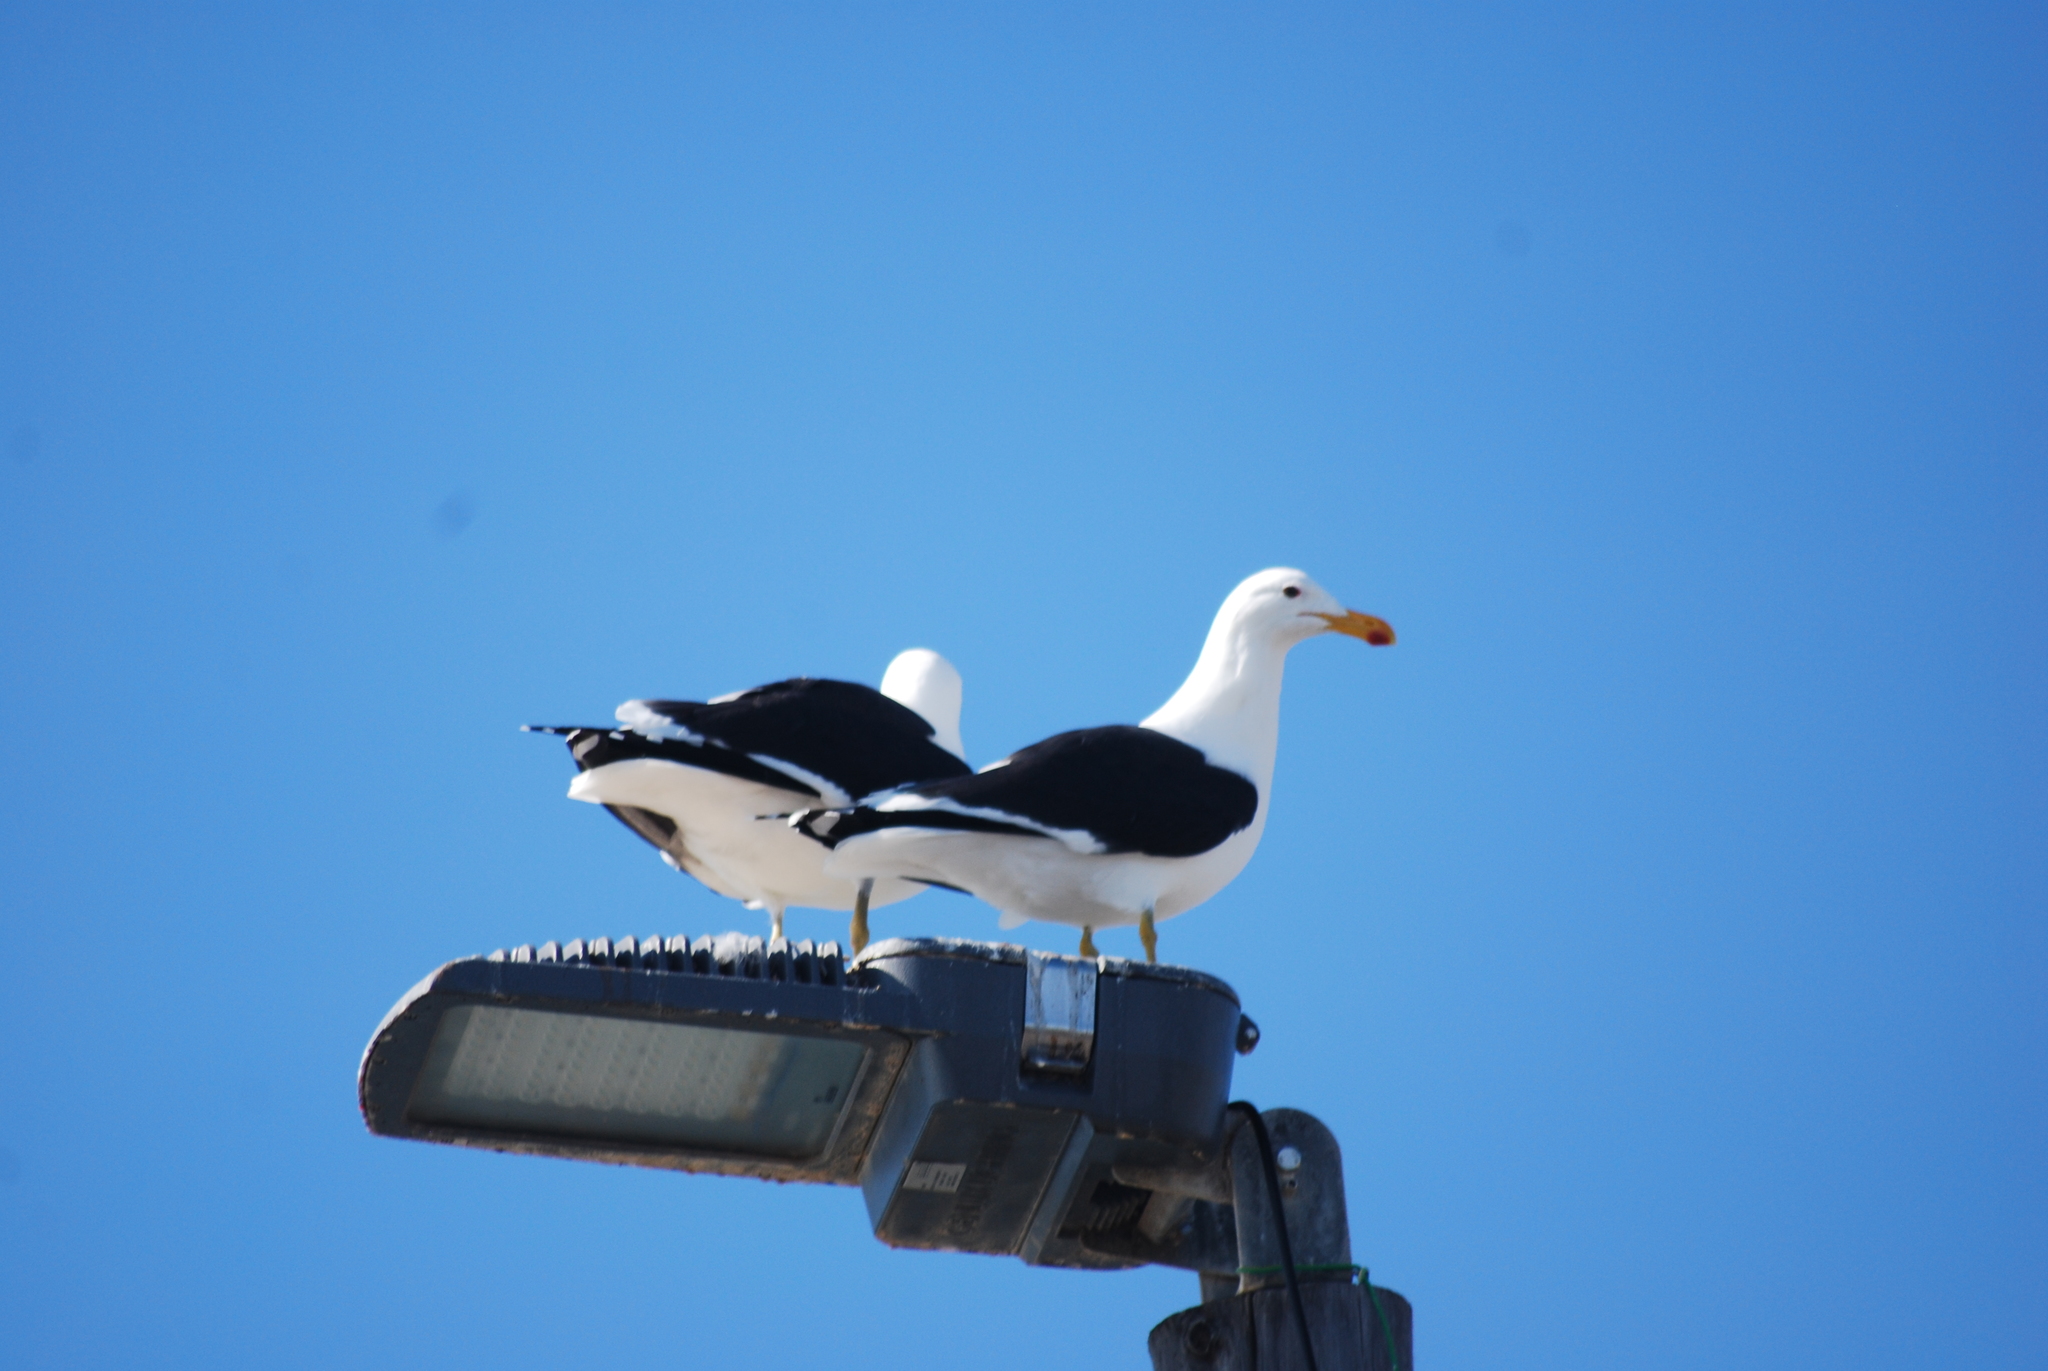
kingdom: Animalia
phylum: Chordata
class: Aves
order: Charadriiformes
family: Laridae
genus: Larus
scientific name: Larus dominicanus
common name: Kelp gull
